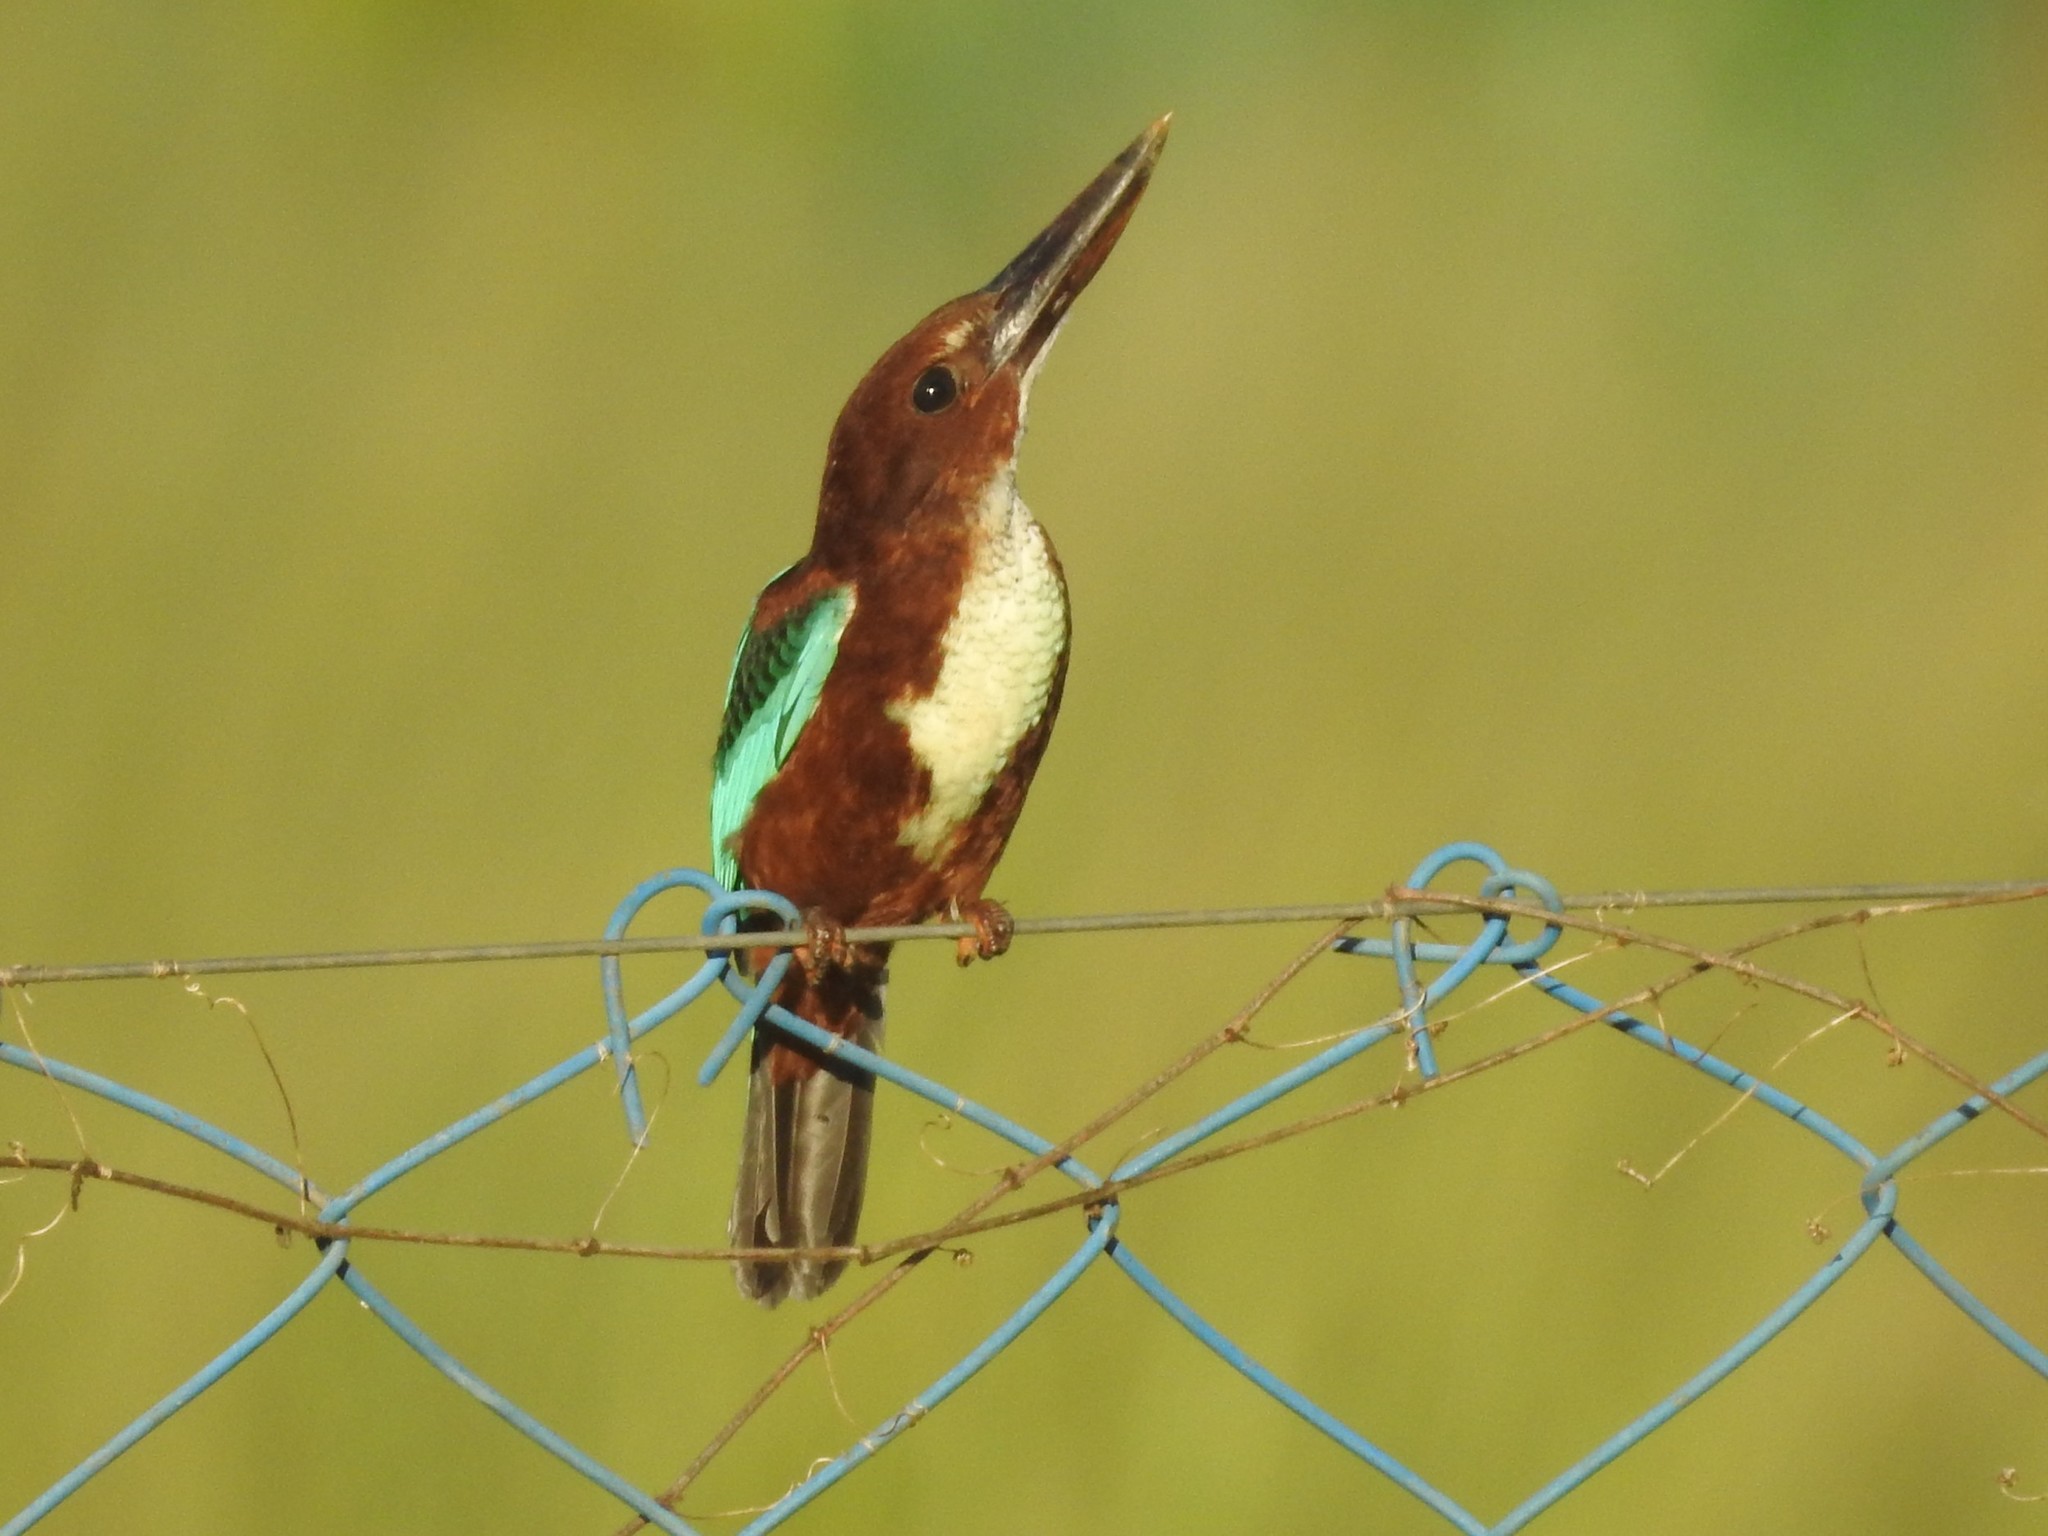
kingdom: Animalia
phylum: Chordata
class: Aves
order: Coraciiformes
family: Alcedinidae
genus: Halcyon
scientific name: Halcyon smyrnensis
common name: White-throated kingfisher
